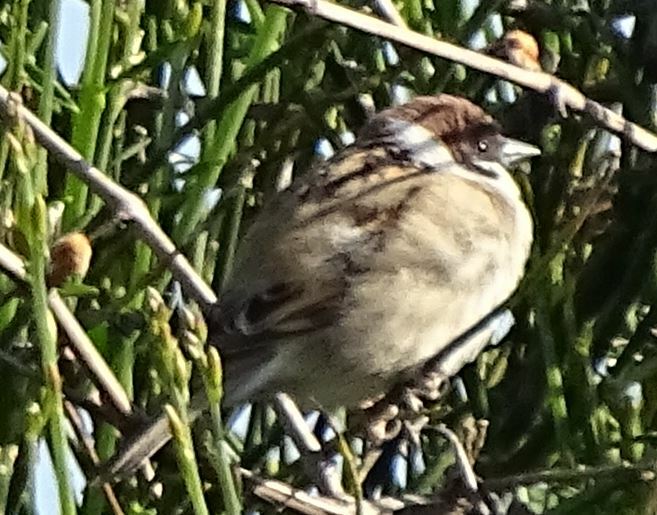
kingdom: Animalia
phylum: Chordata
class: Aves
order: Passeriformes
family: Passeridae
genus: Passer
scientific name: Passer montanus
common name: Eurasian tree sparrow
